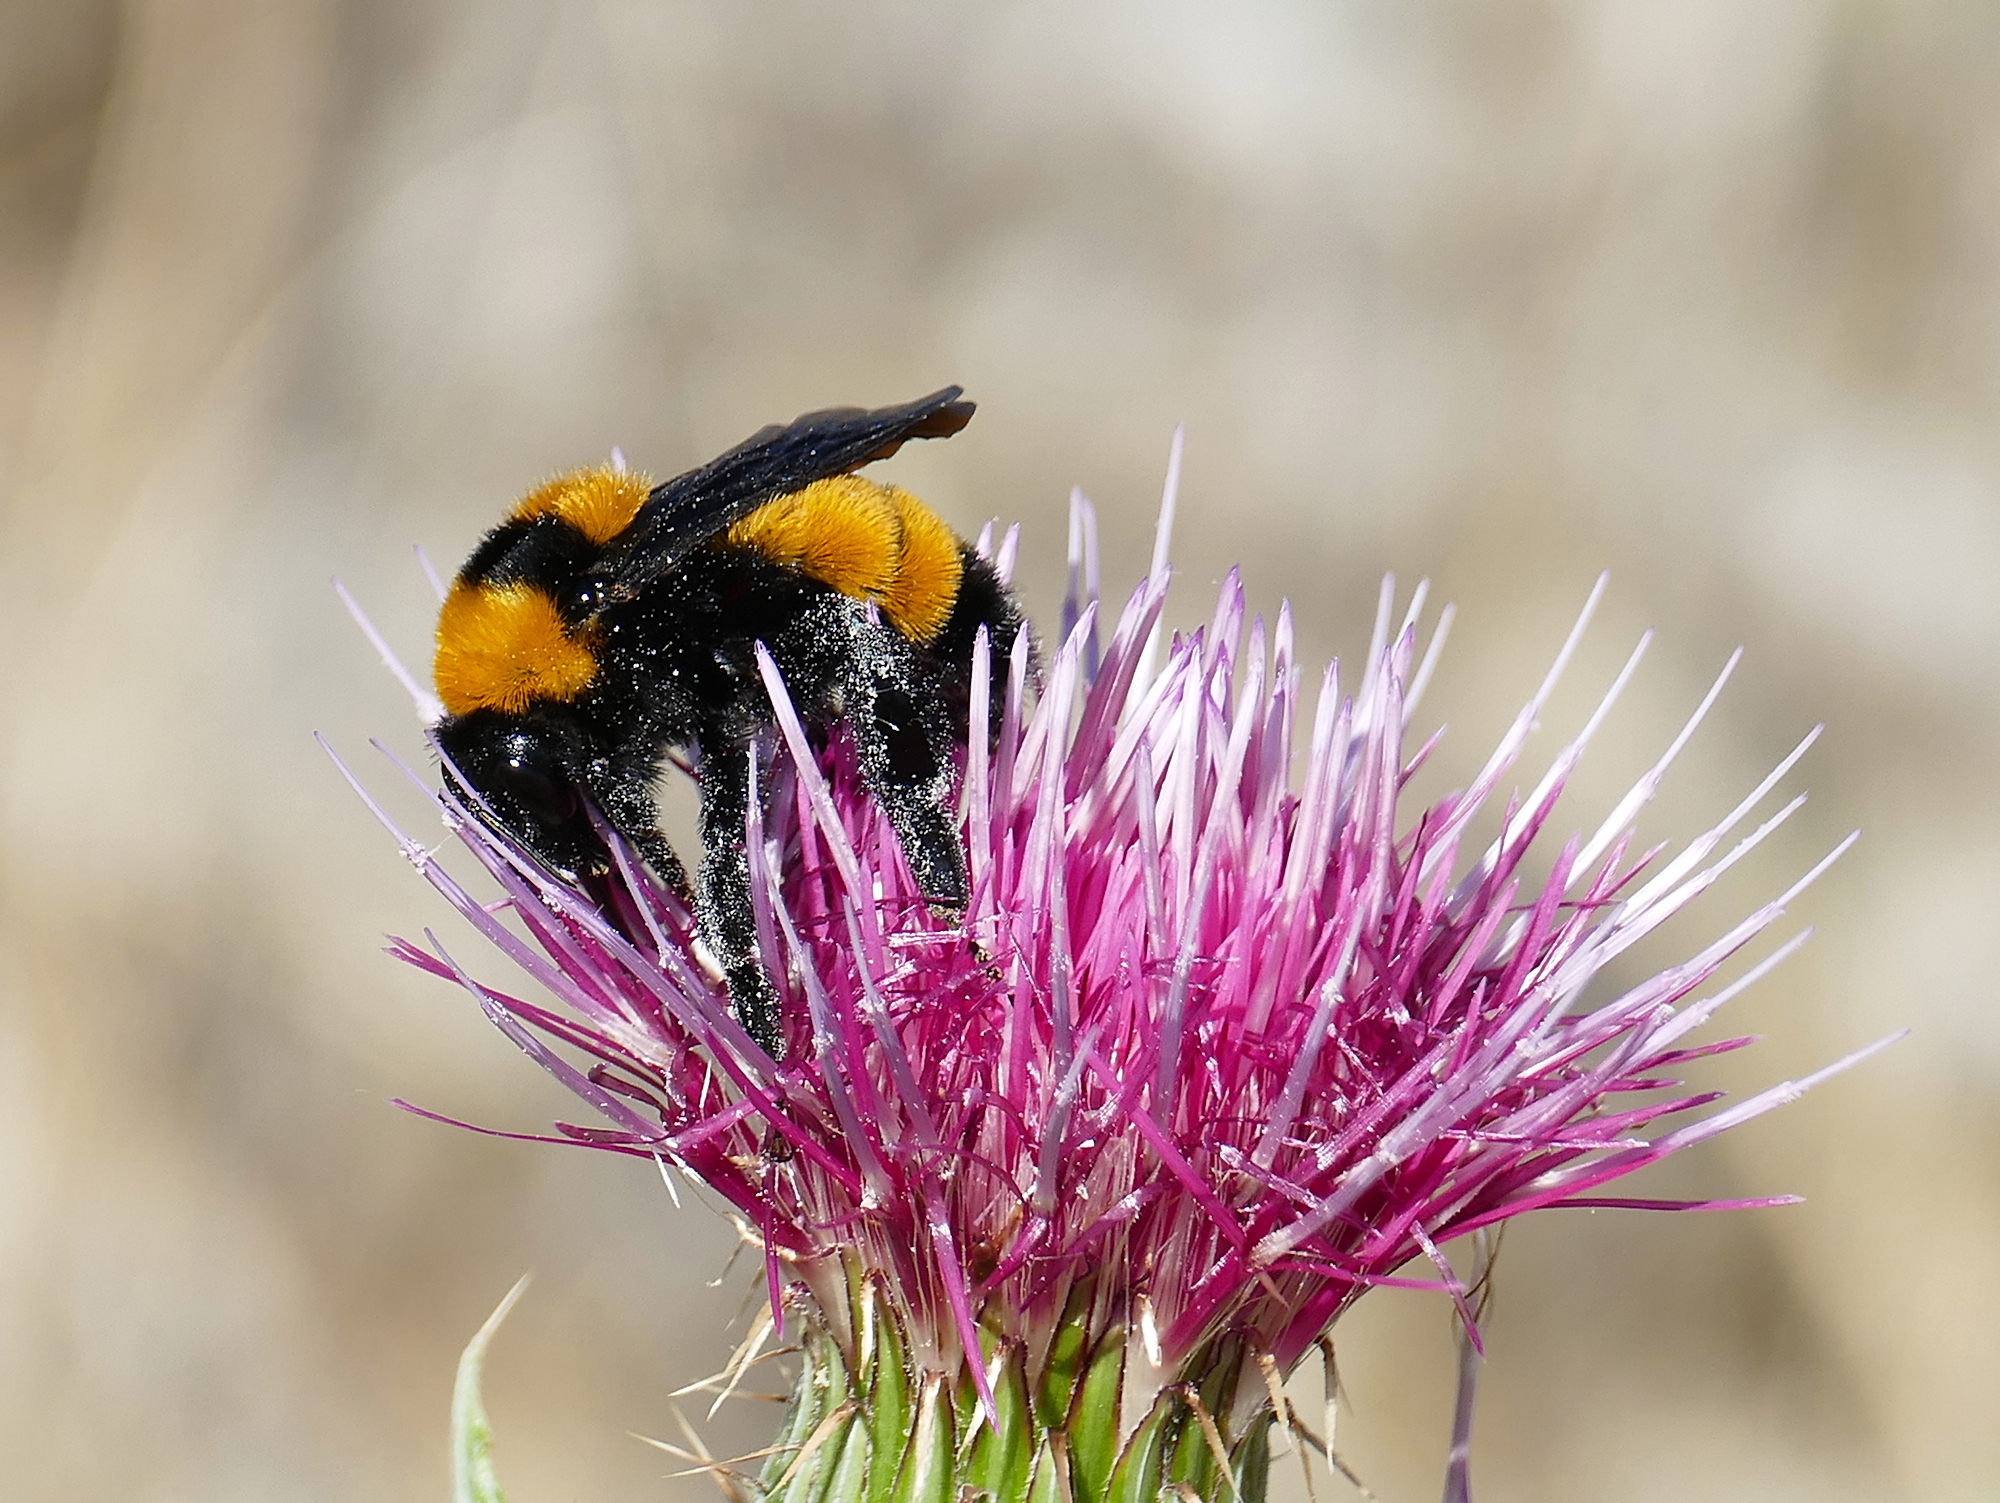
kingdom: Animalia
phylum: Arthropoda
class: Insecta
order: Hymenoptera
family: Apidae
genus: Bombus
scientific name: Bombus sonorus
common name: Sonoran bumble bee
